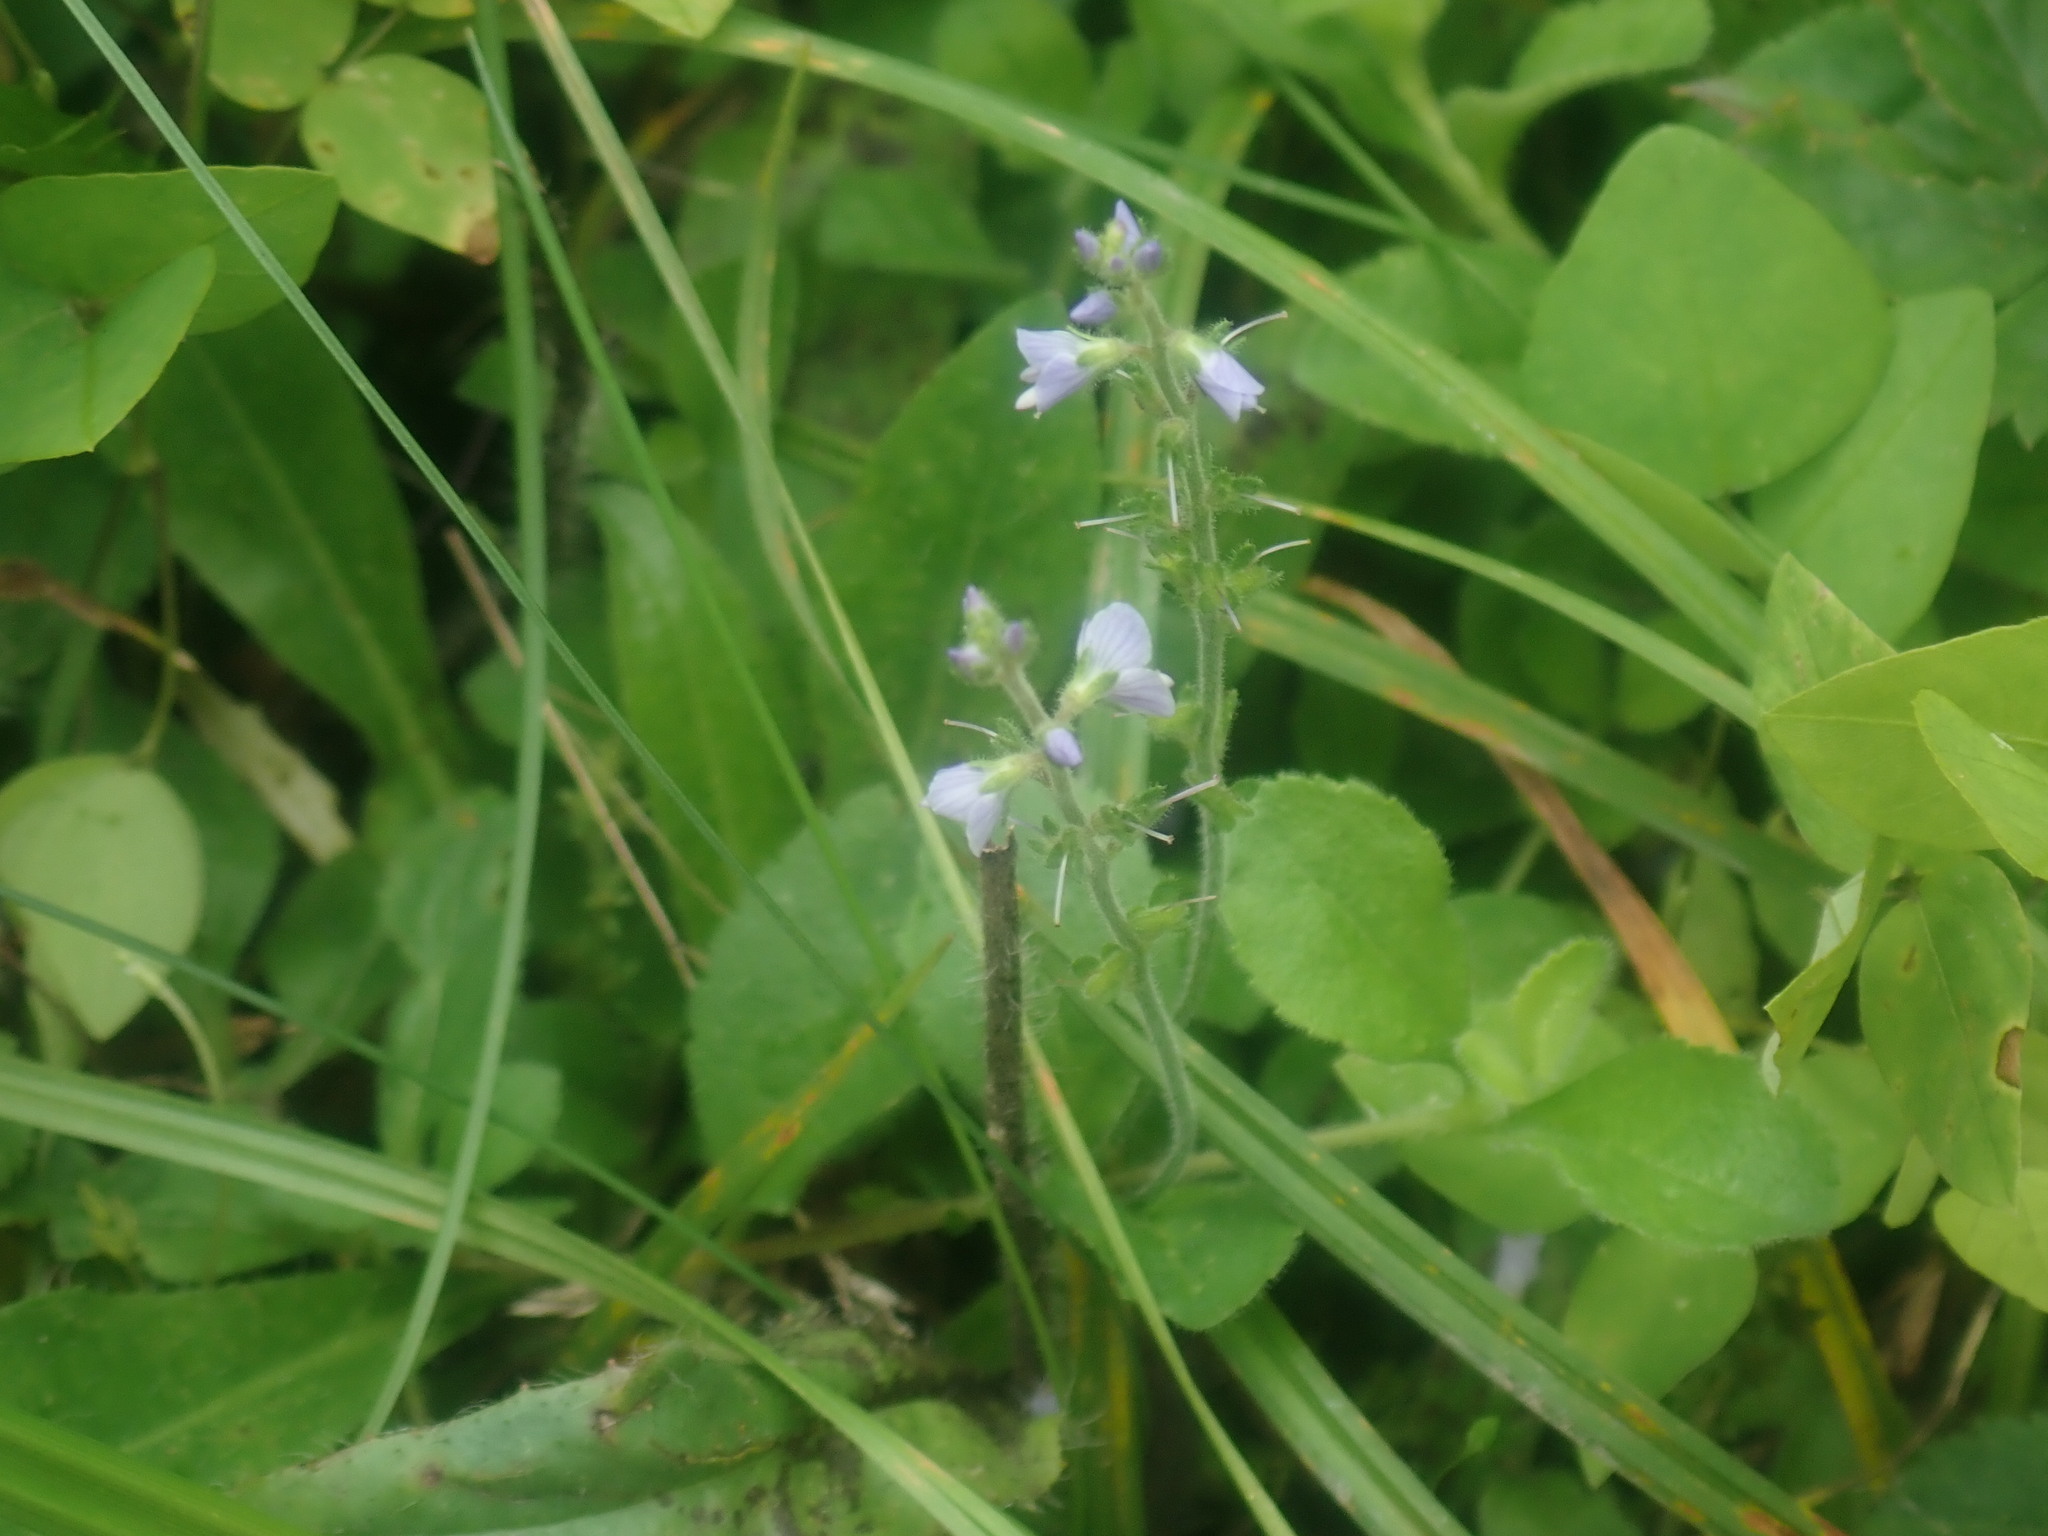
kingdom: Plantae
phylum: Tracheophyta
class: Magnoliopsida
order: Lamiales
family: Plantaginaceae
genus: Veronica
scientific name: Veronica officinalis
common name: Common speedwell
